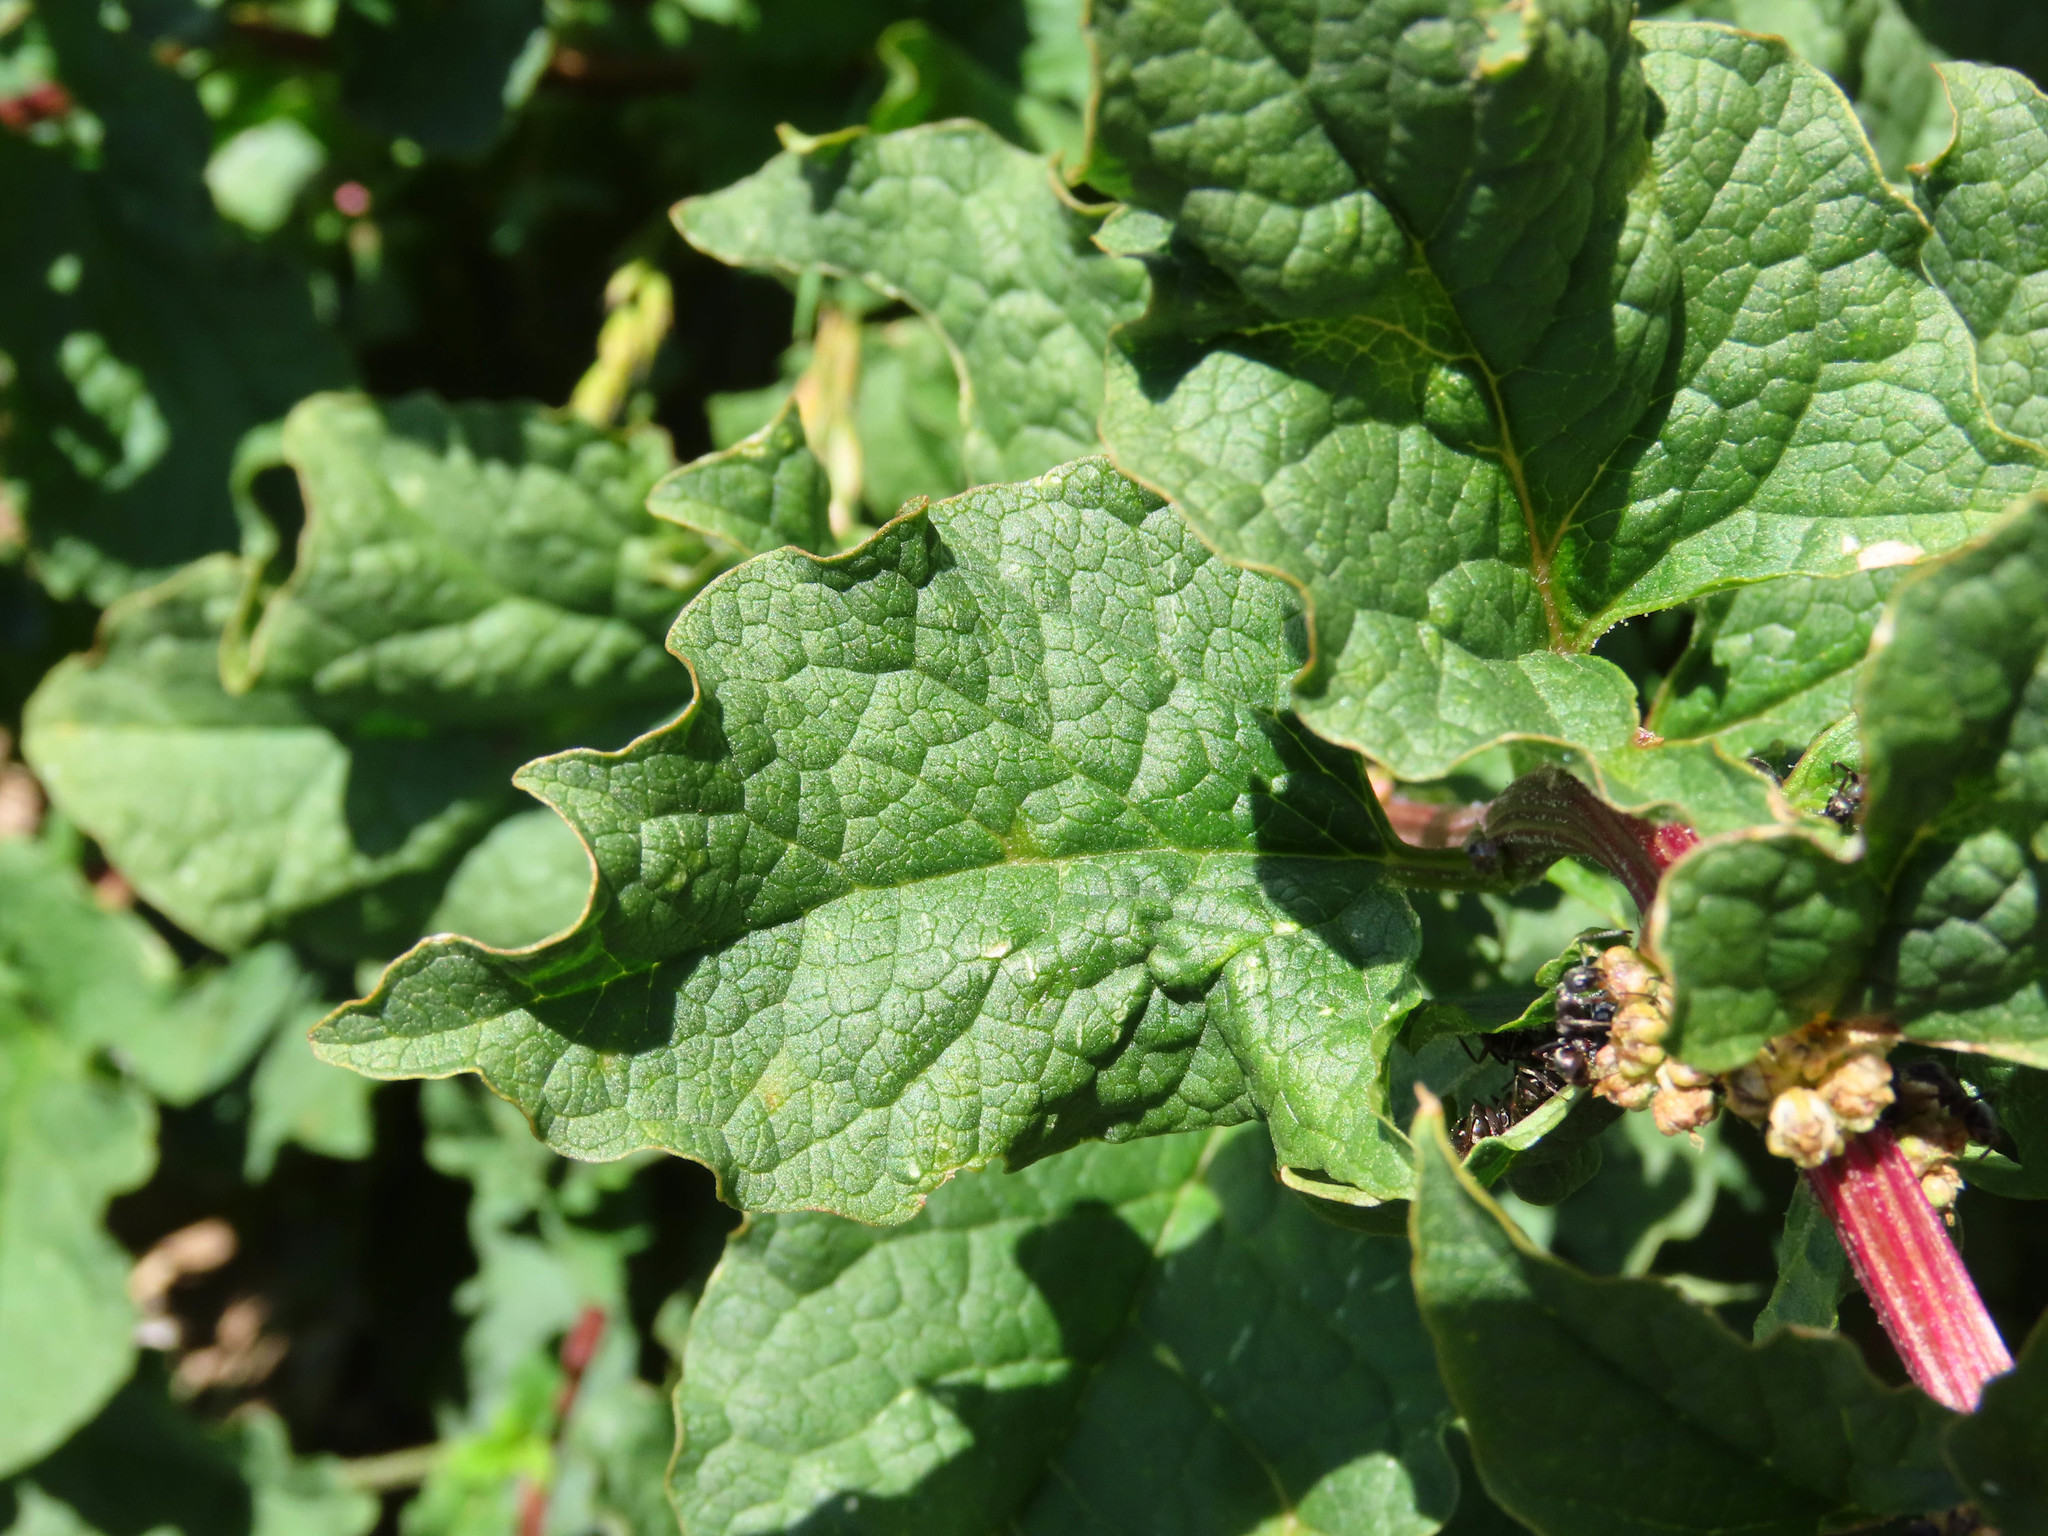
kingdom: Plantae
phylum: Tracheophyta
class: Magnoliopsida
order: Caryophyllales
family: Amaranthaceae
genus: Blitum
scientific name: Blitum bonus-henricus
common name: Good king henry
